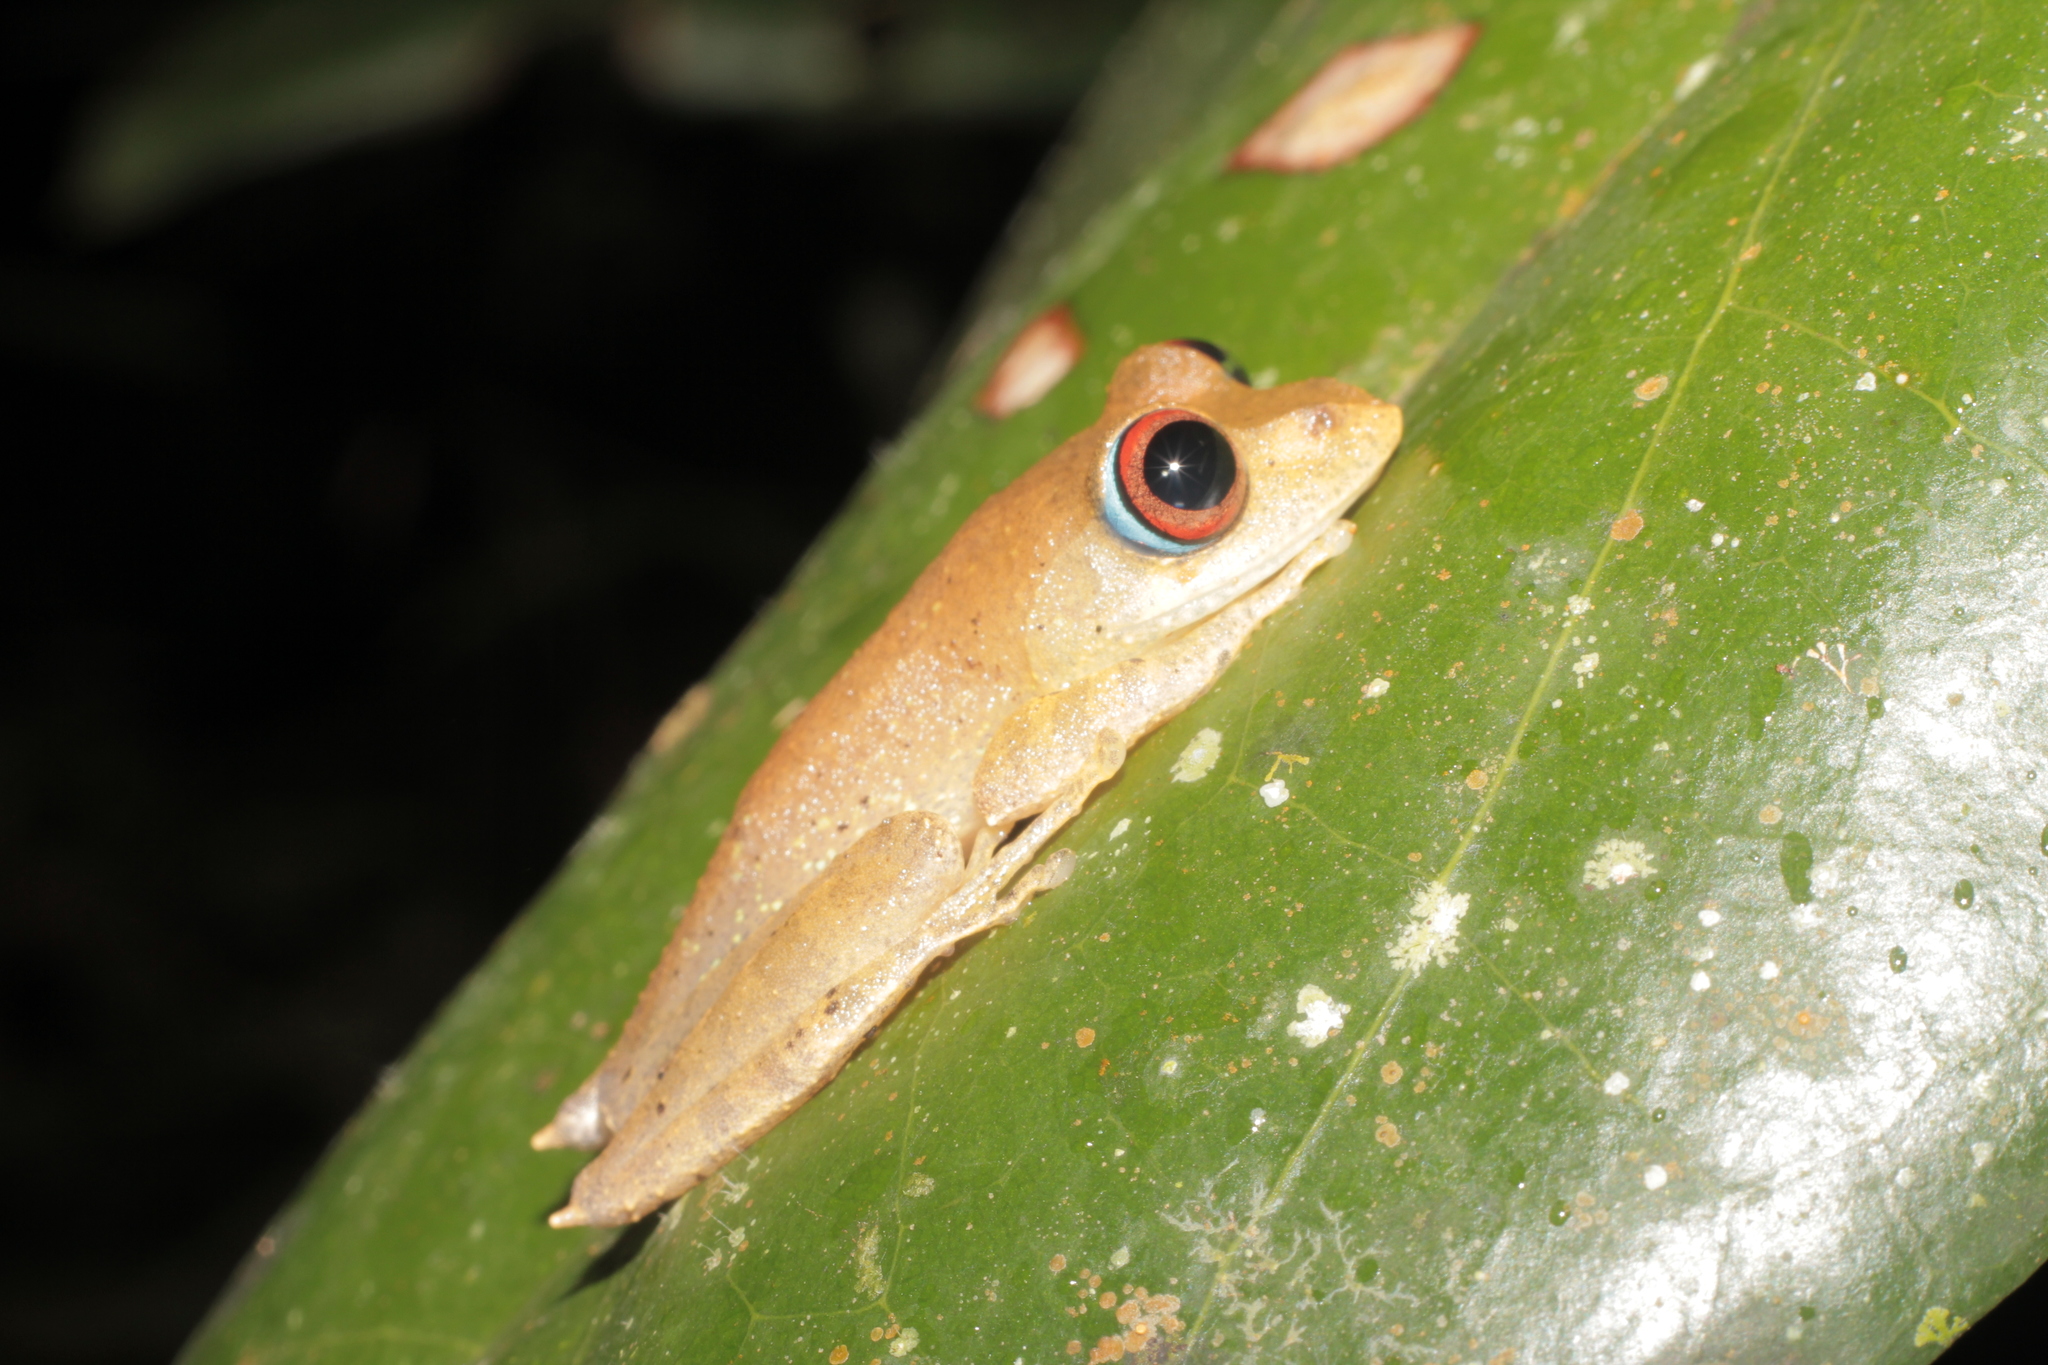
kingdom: Animalia
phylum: Chordata
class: Amphibia
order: Anura
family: Mantellidae
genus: Boophis
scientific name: Boophis boehmei
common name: Böhme's bright-eyed frog
